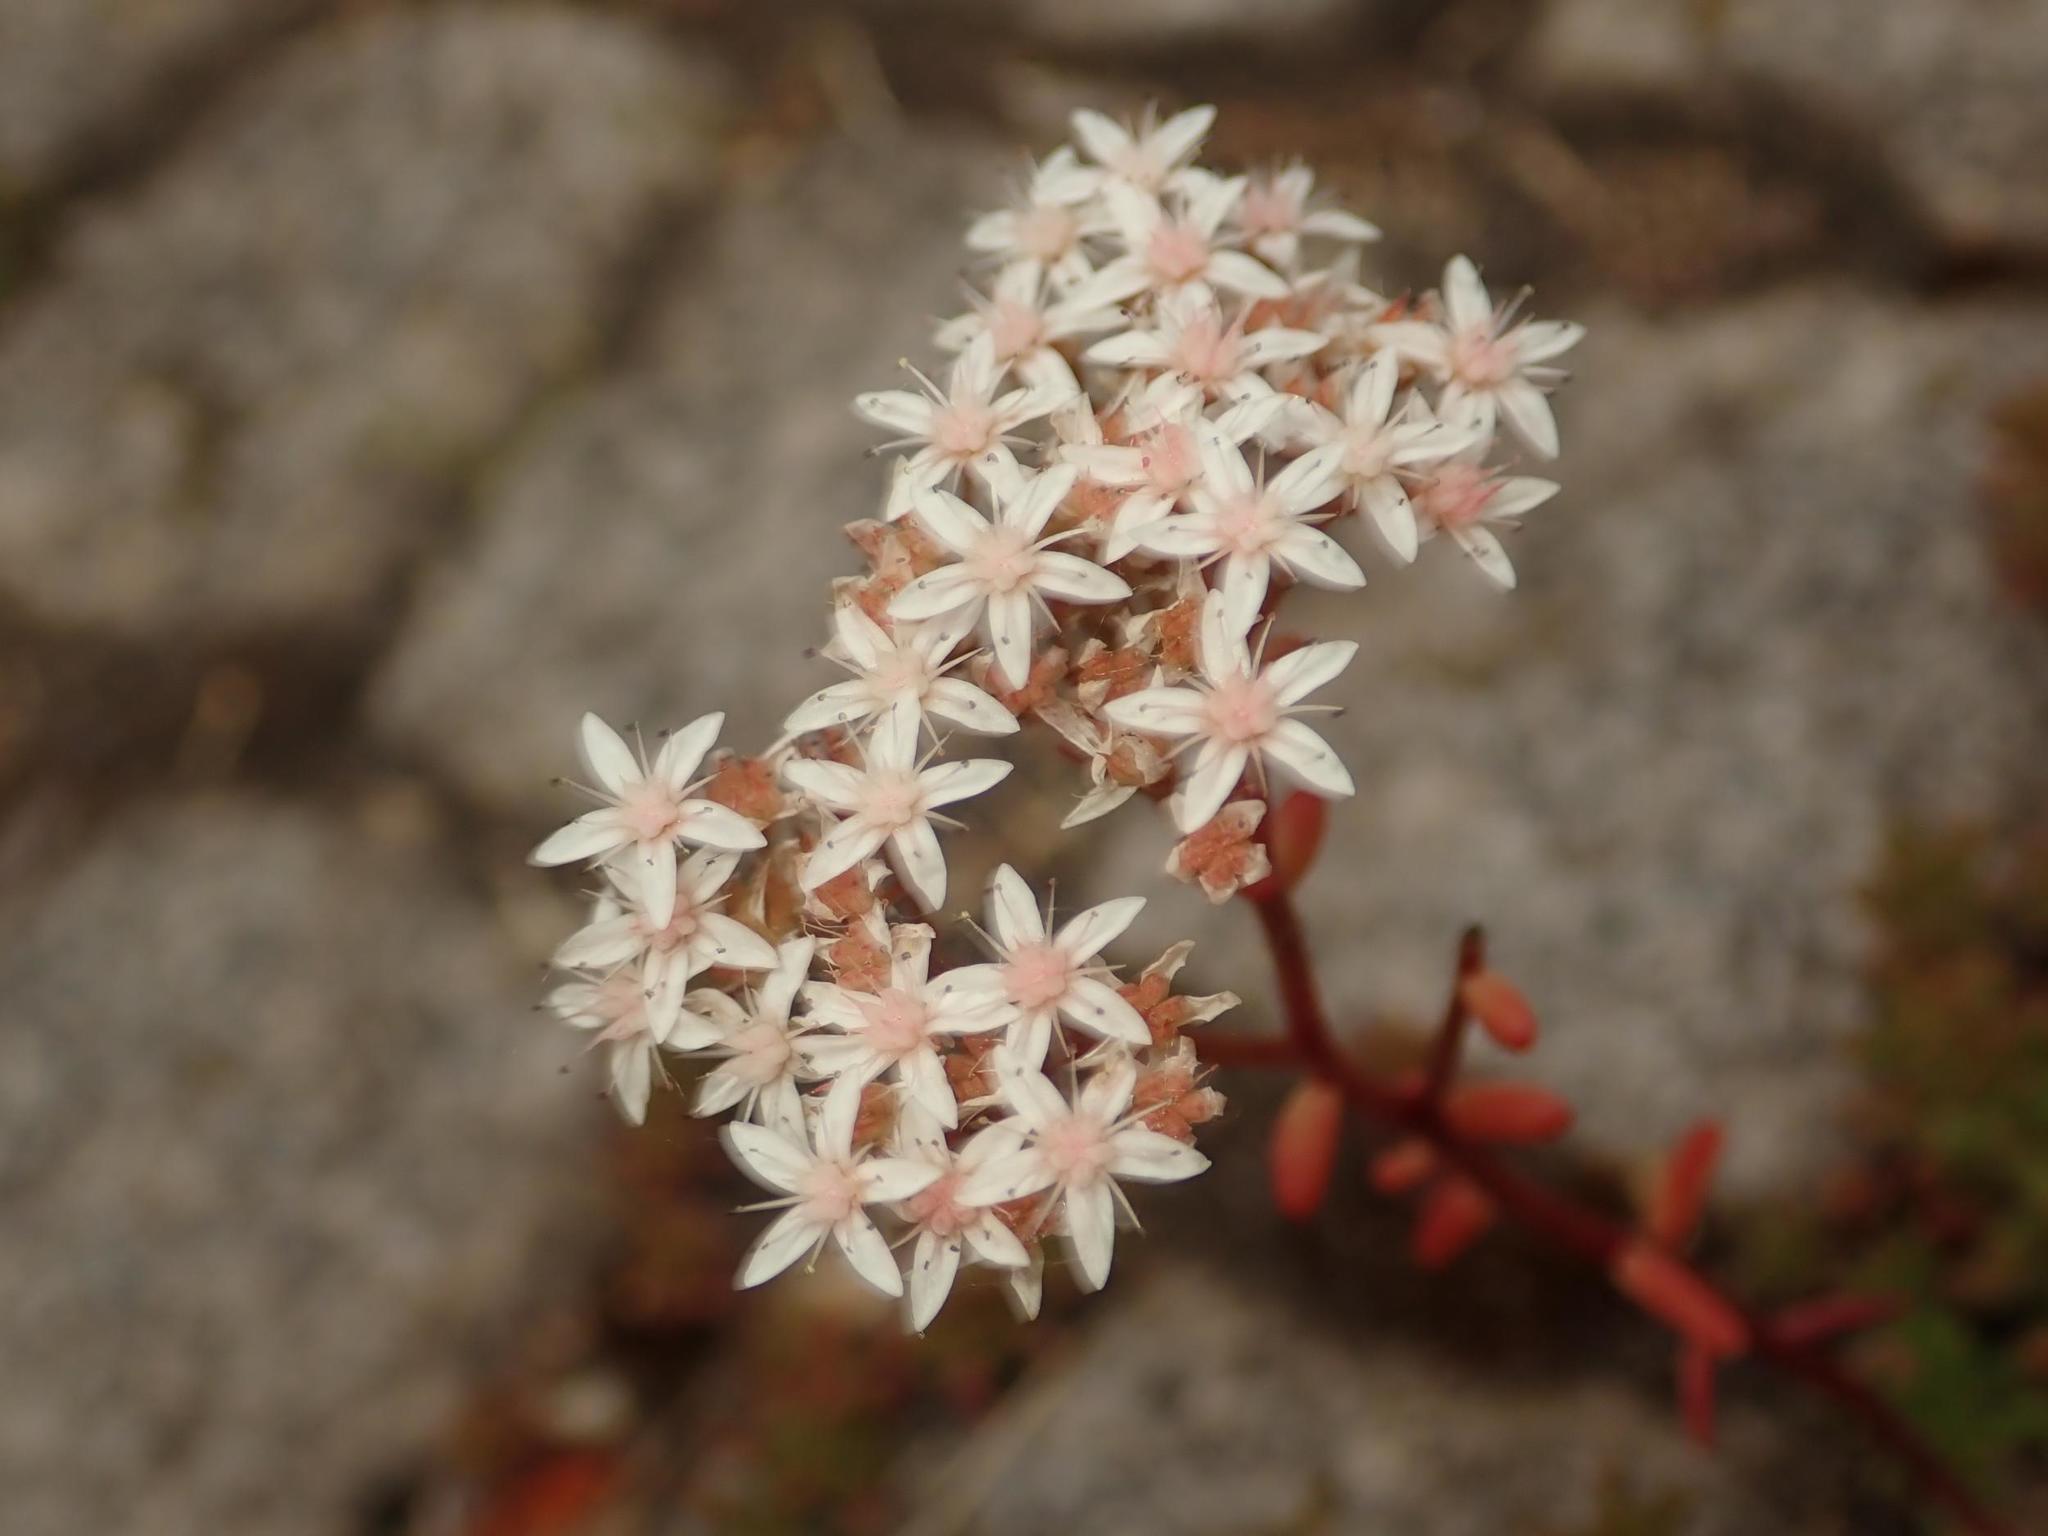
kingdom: Plantae
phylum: Tracheophyta
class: Magnoliopsida
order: Saxifragales
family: Crassulaceae
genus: Sedum
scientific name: Sedum album
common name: White stonecrop
